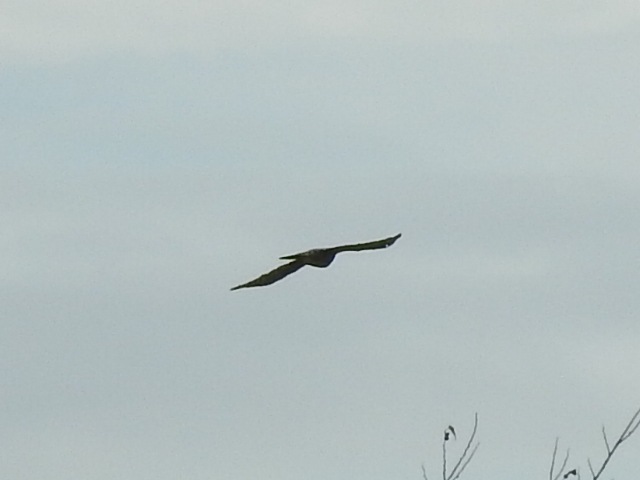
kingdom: Animalia
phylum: Chordata
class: Aves
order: Accipitriformes
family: Accipitridae
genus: Accipiter
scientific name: Accipiter cooperii
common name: Cooper's hawk
